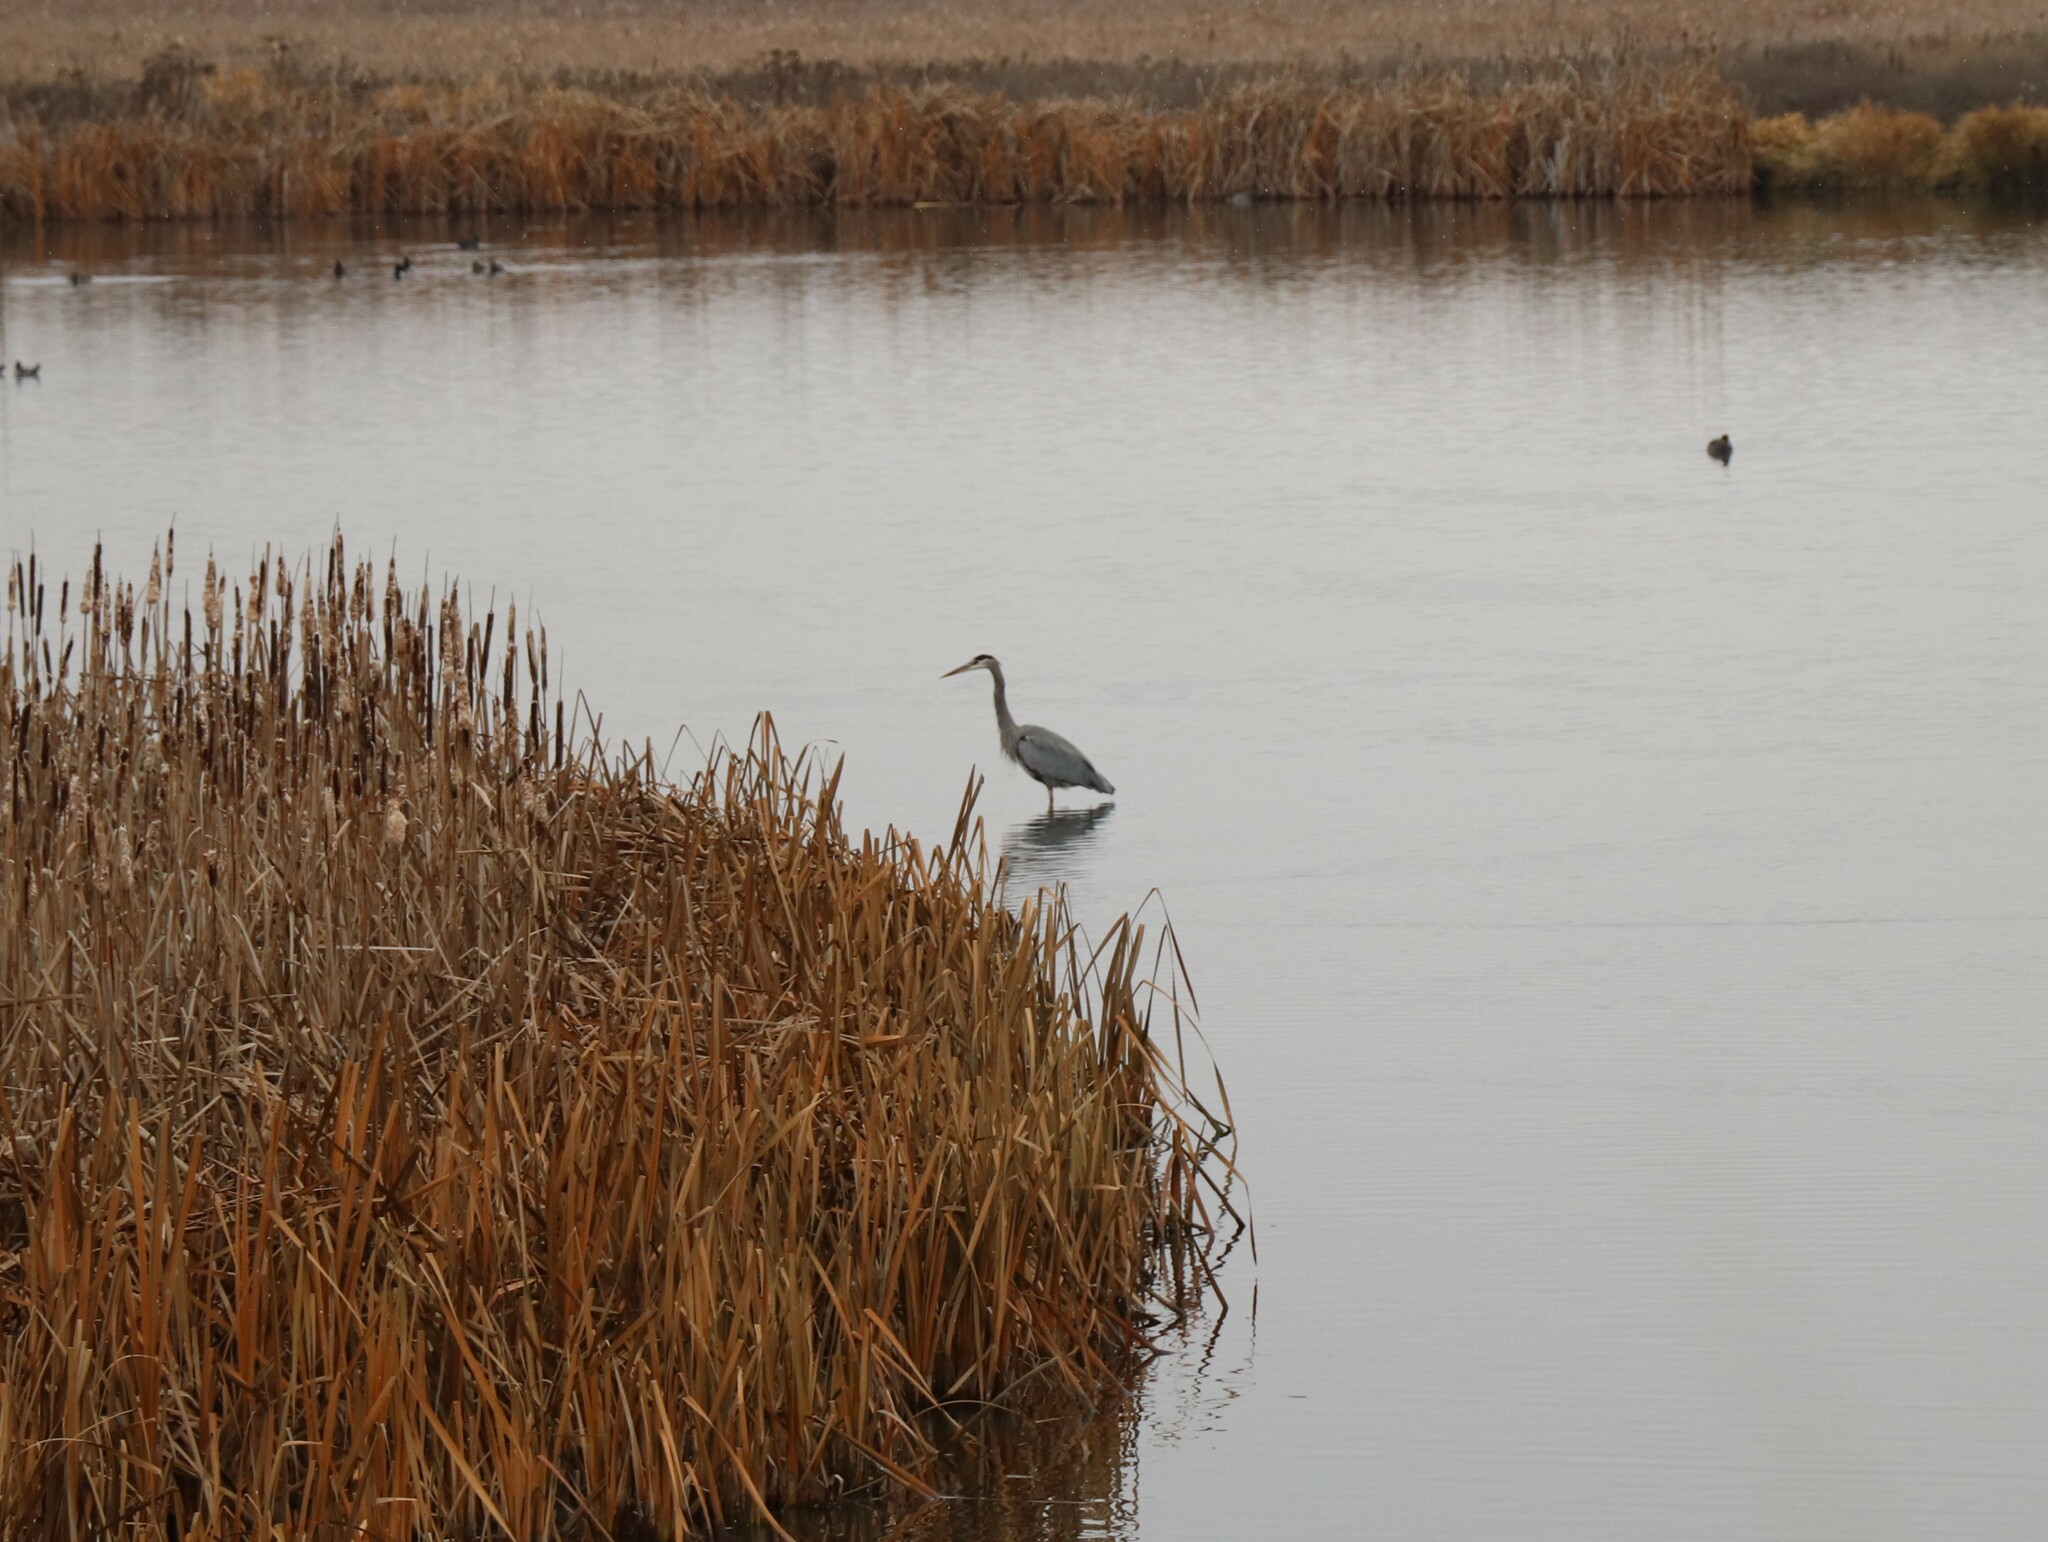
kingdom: Animalia
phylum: Chordata
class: Aves
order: Pelecaniformes
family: Ardeidae
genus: Ardea
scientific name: Ardea herodias
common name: Great blue heron
